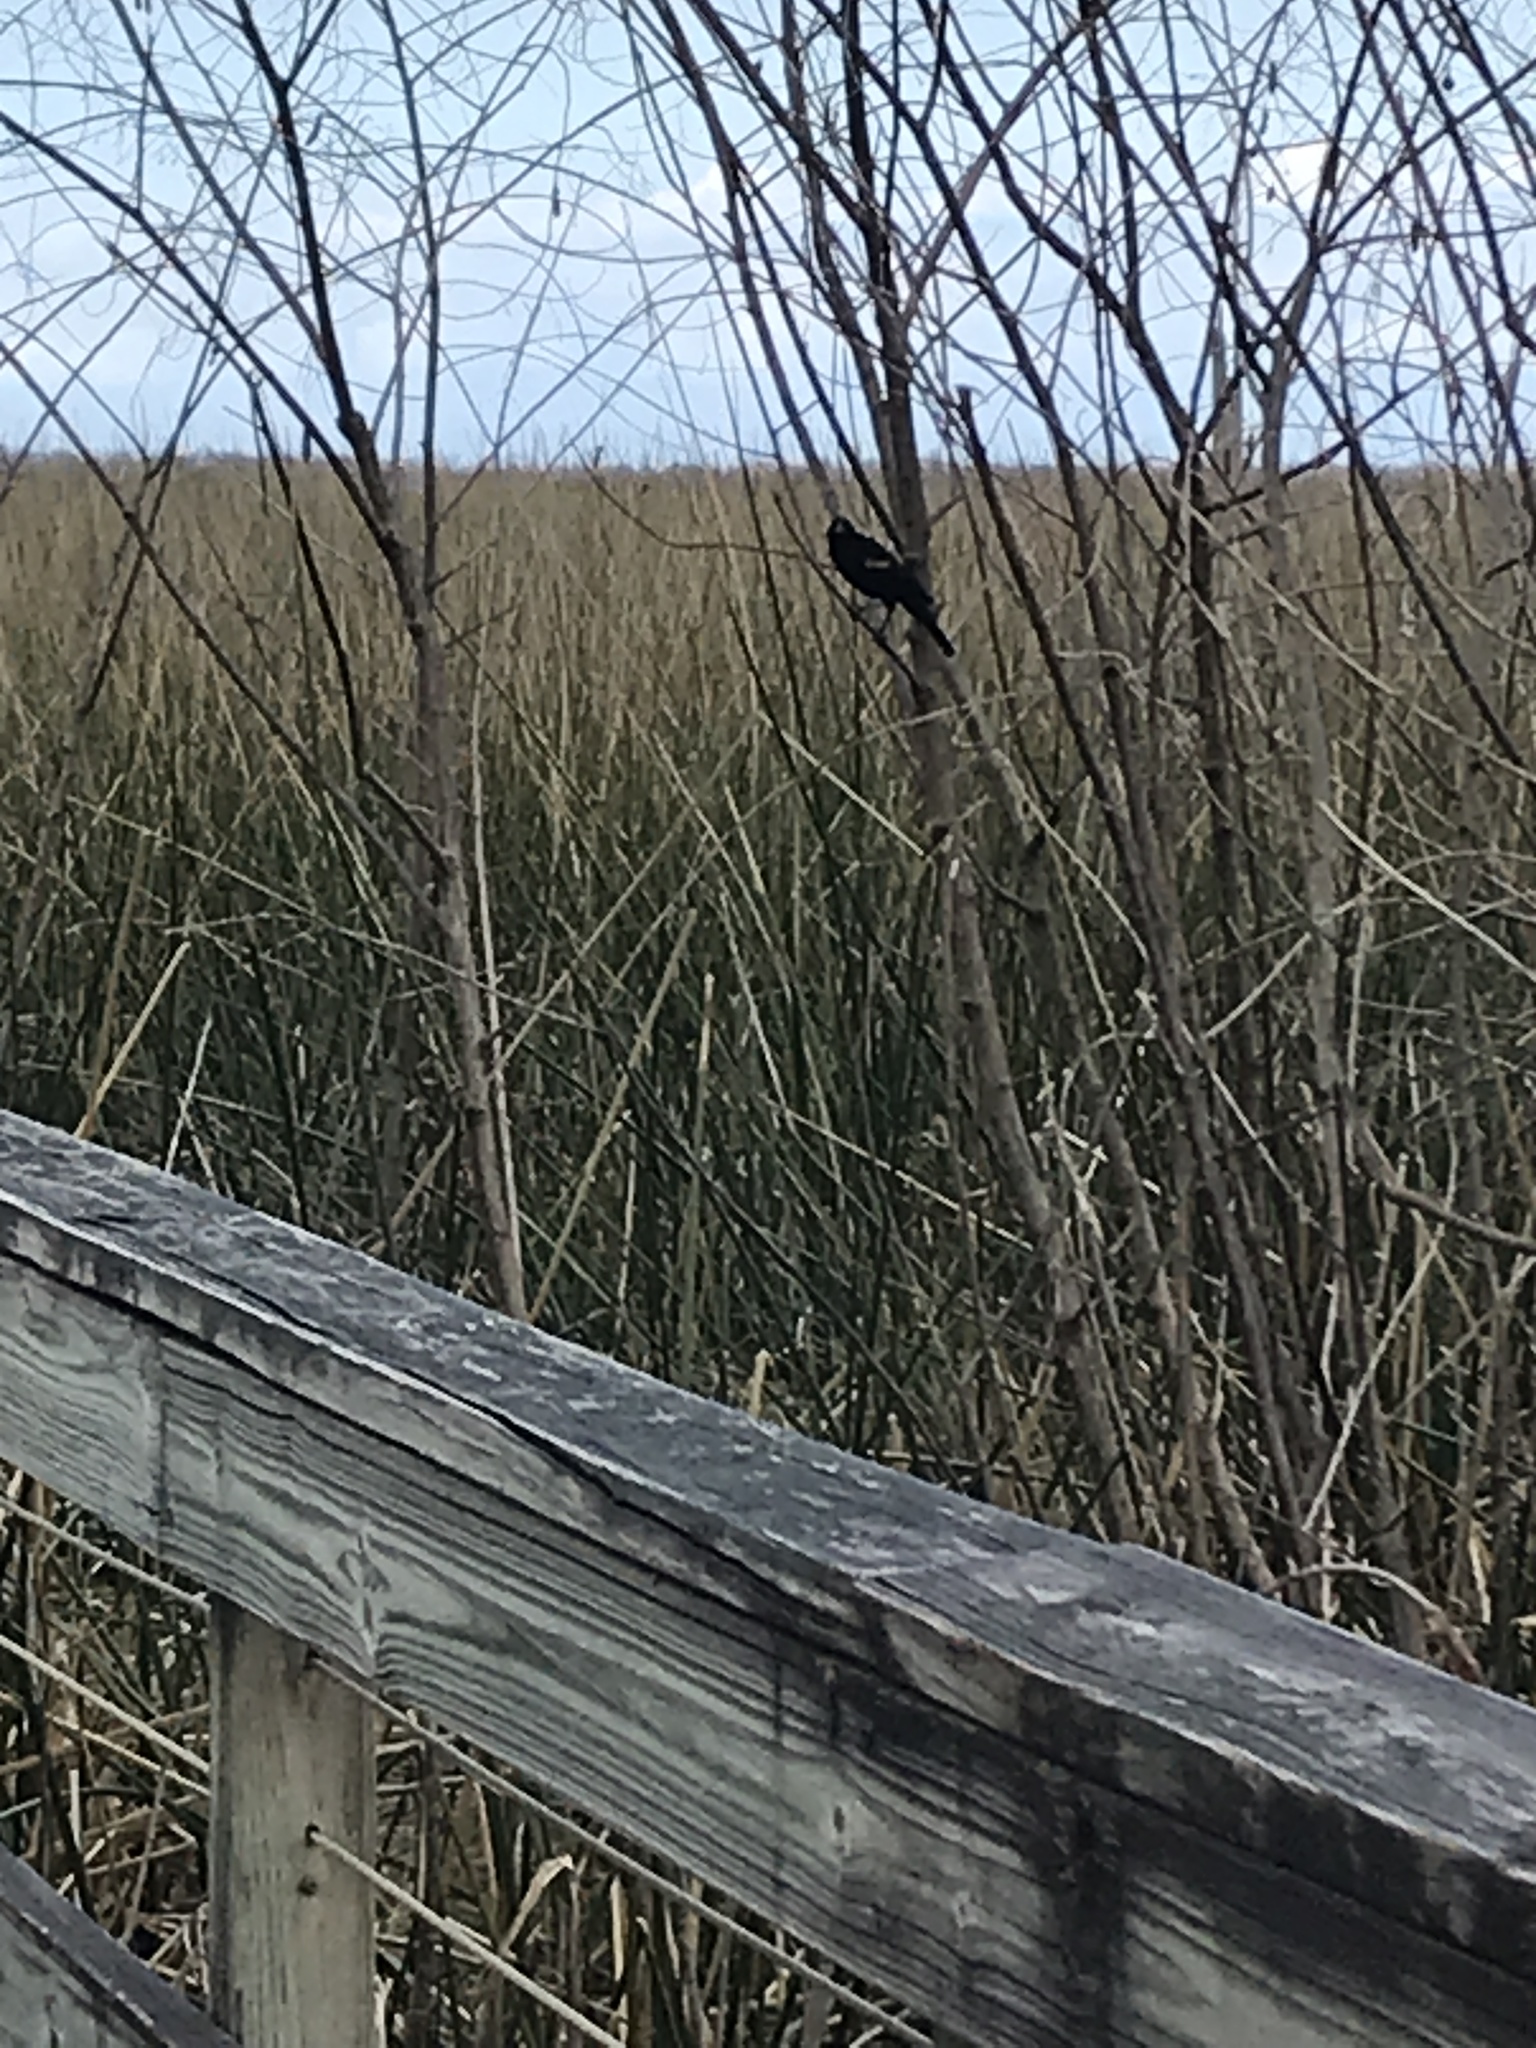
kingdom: Animalia
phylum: Chordata
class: Aves
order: Passeriformes
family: Icteridae
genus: Agelaius
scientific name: Agelaius phoeniceus
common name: Red-winged blackbird
